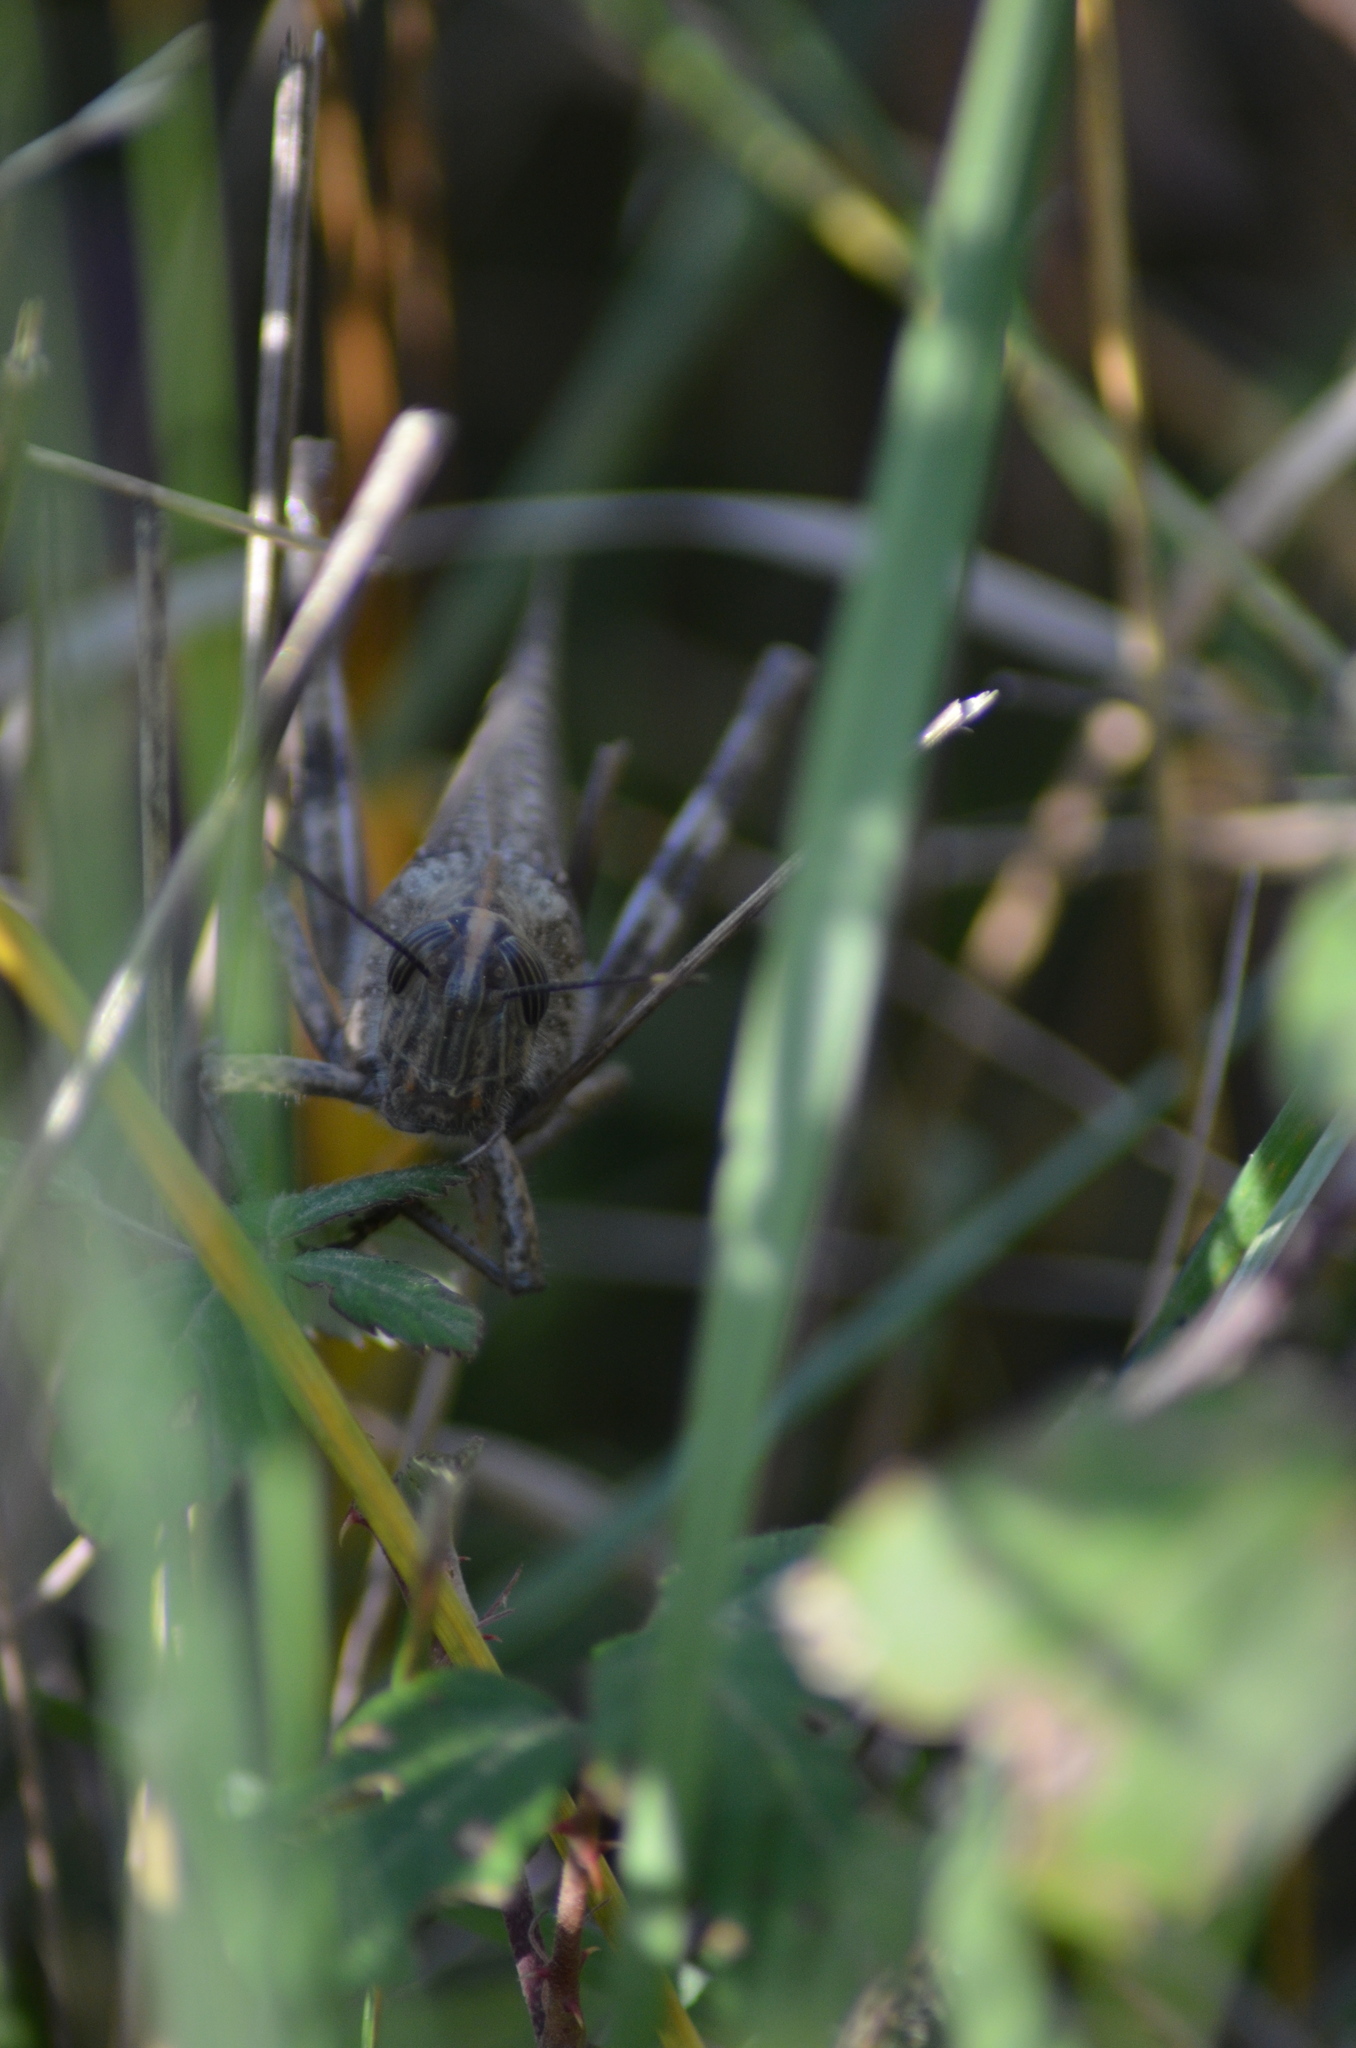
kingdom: Animalia
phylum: Arthropoda
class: Insecta
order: Orthoptera
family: Acrididae
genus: Anacridium
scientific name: Anacridium aegyptium
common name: Egyptian grasshopper
